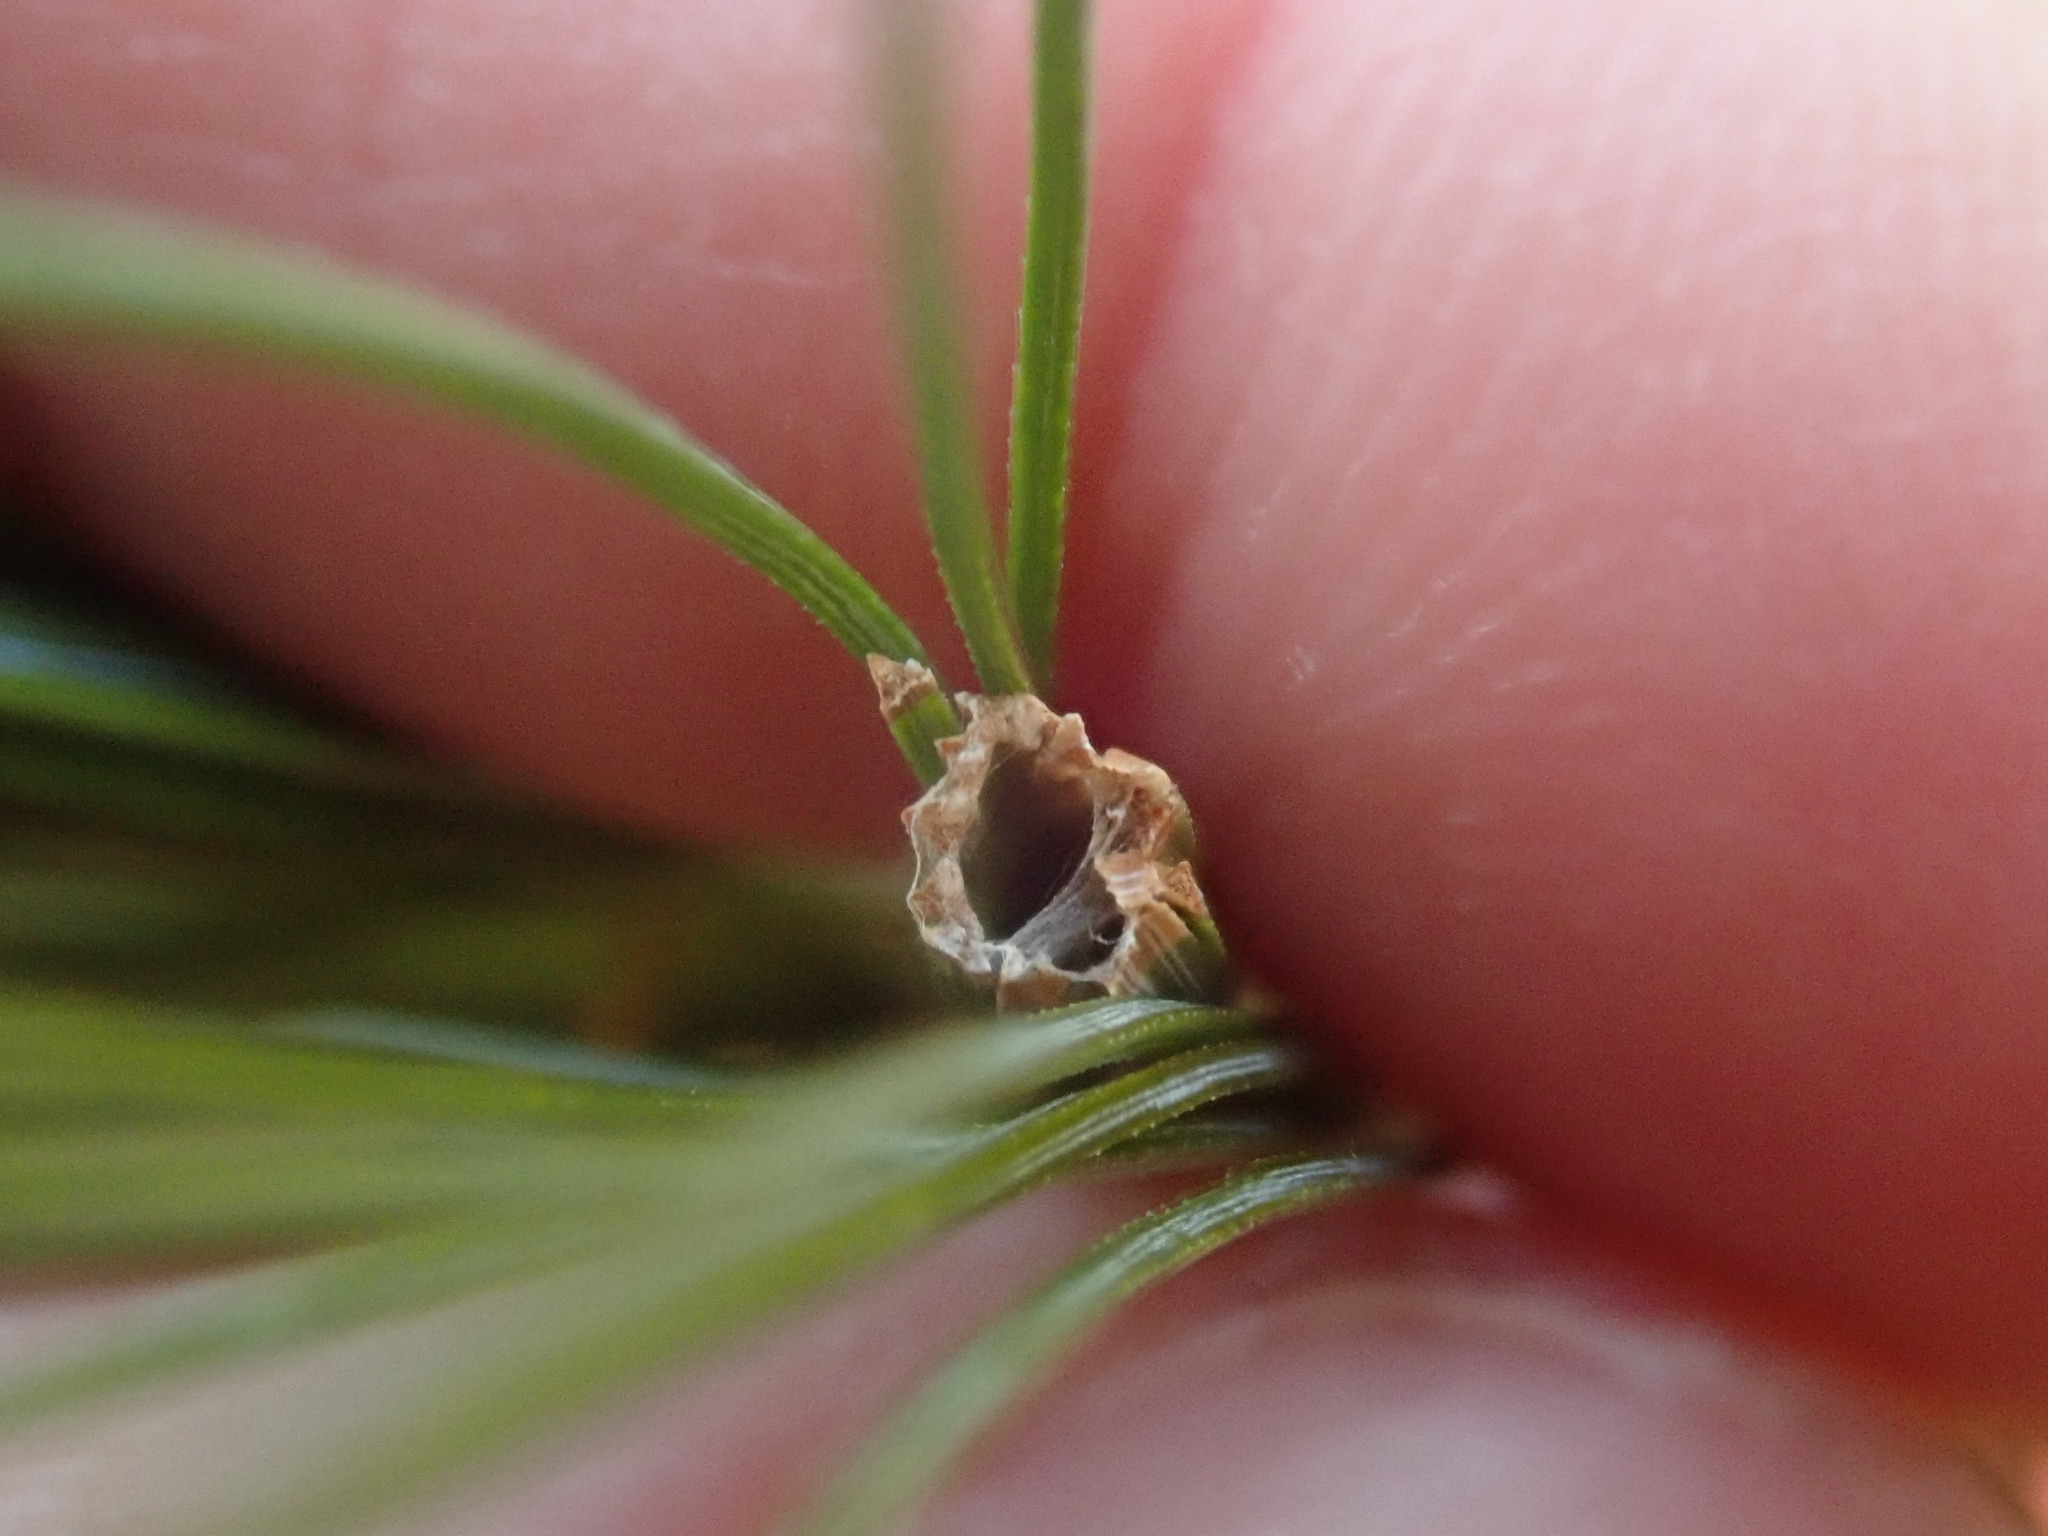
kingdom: Animalia
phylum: Arthropoda
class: Insecta
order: Lepidoptera
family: Tortricidae
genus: Argyrotaenia
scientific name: Argyrotaenia pinatubana
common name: Pine tube moth
